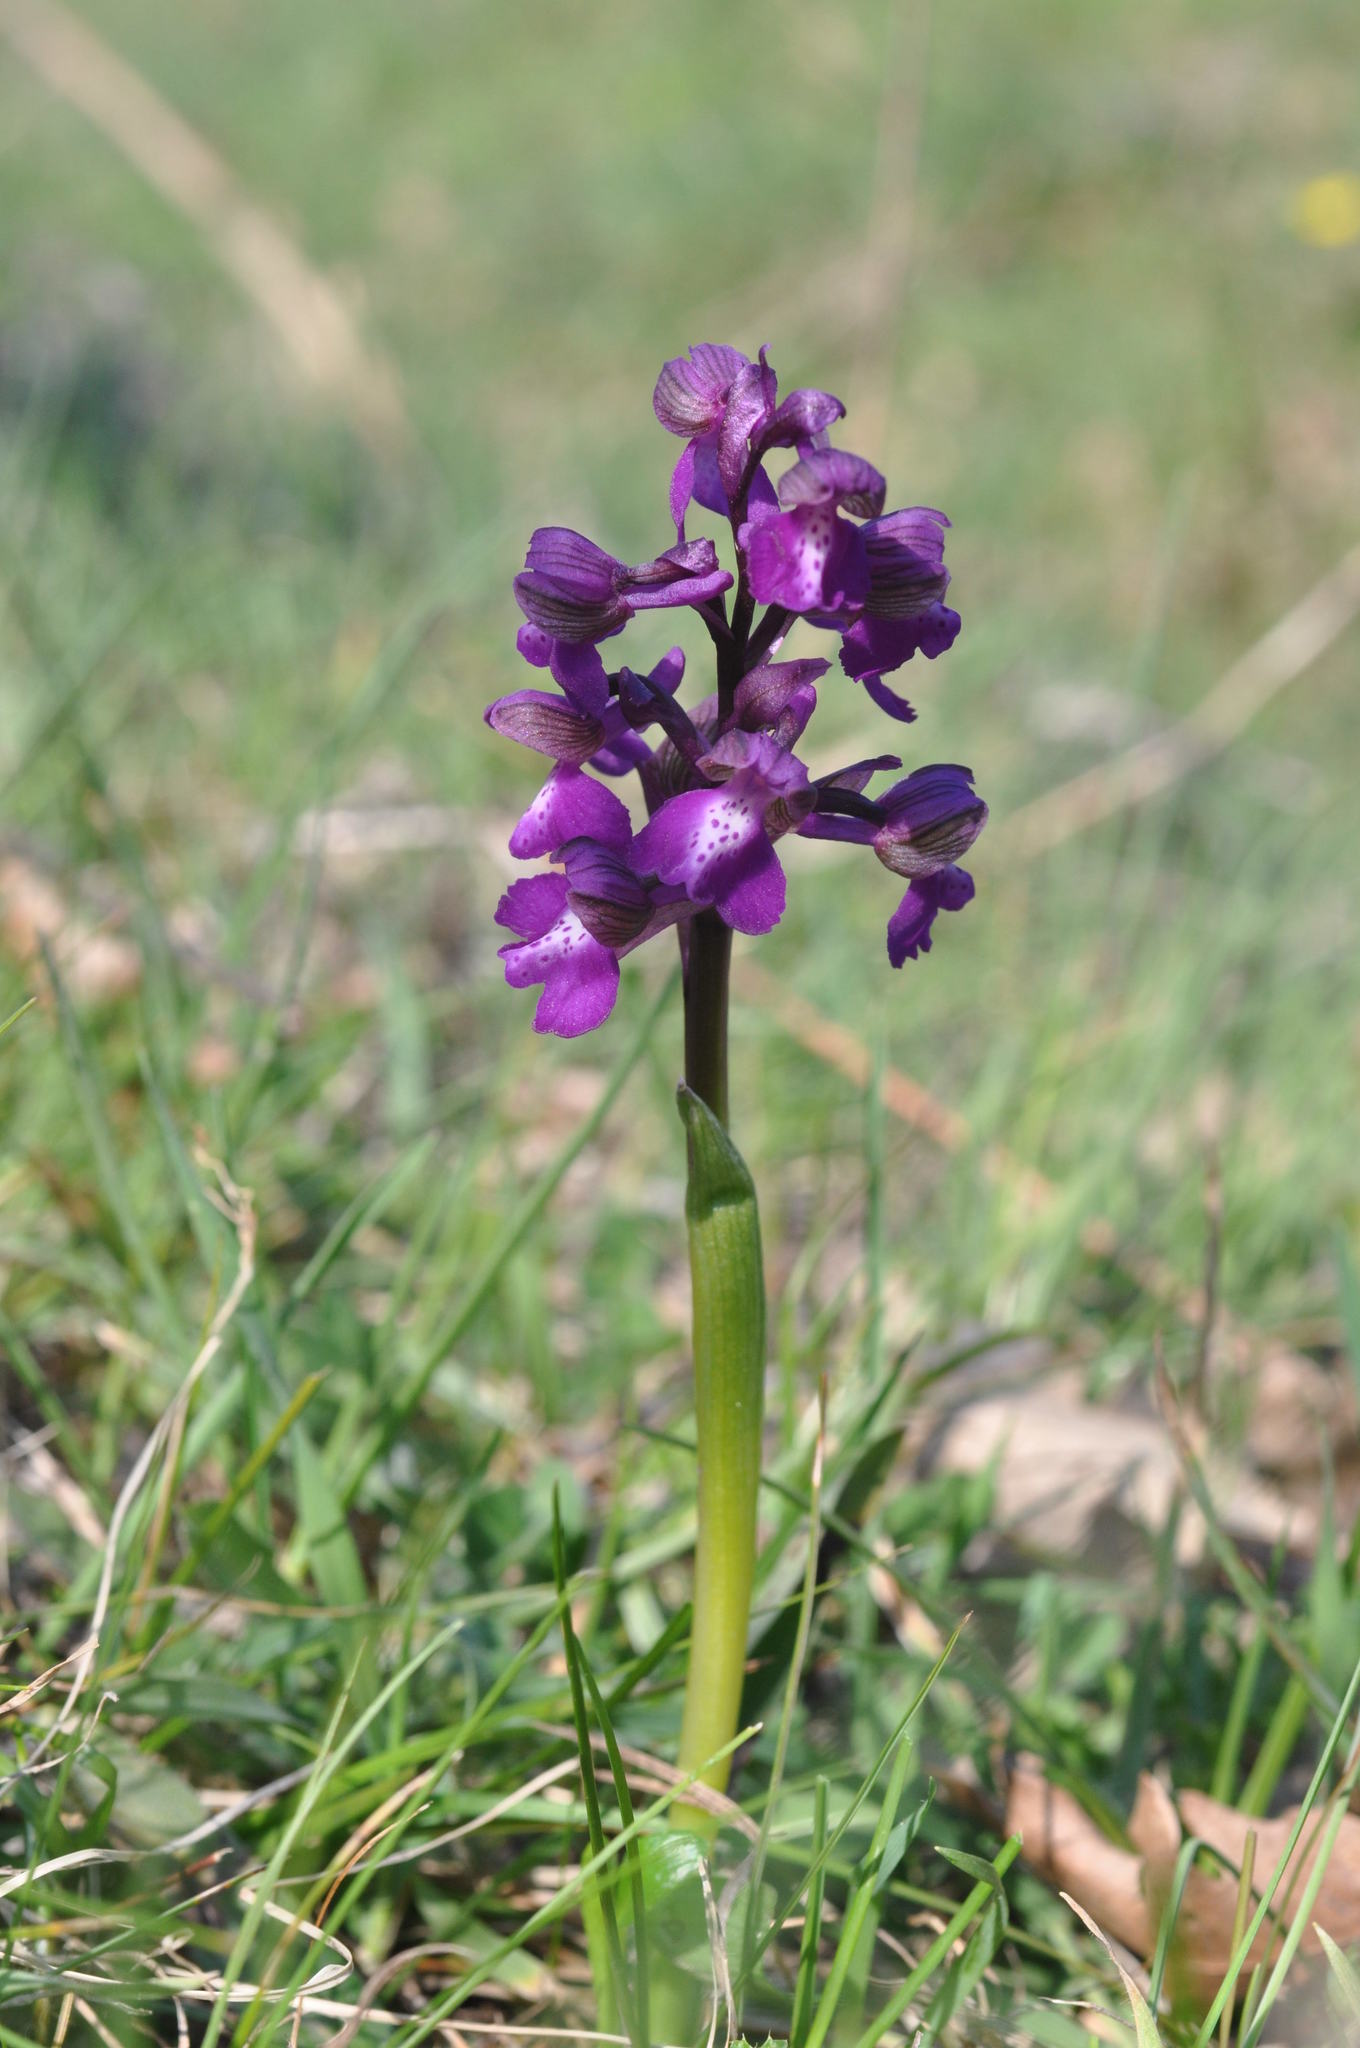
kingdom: Plantae
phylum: Tracheophyta
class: Liliopsida
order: Asparagales
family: Orchidaceae
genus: Anacamptis
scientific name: Anacamptis morio
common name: Green-winged orchid
